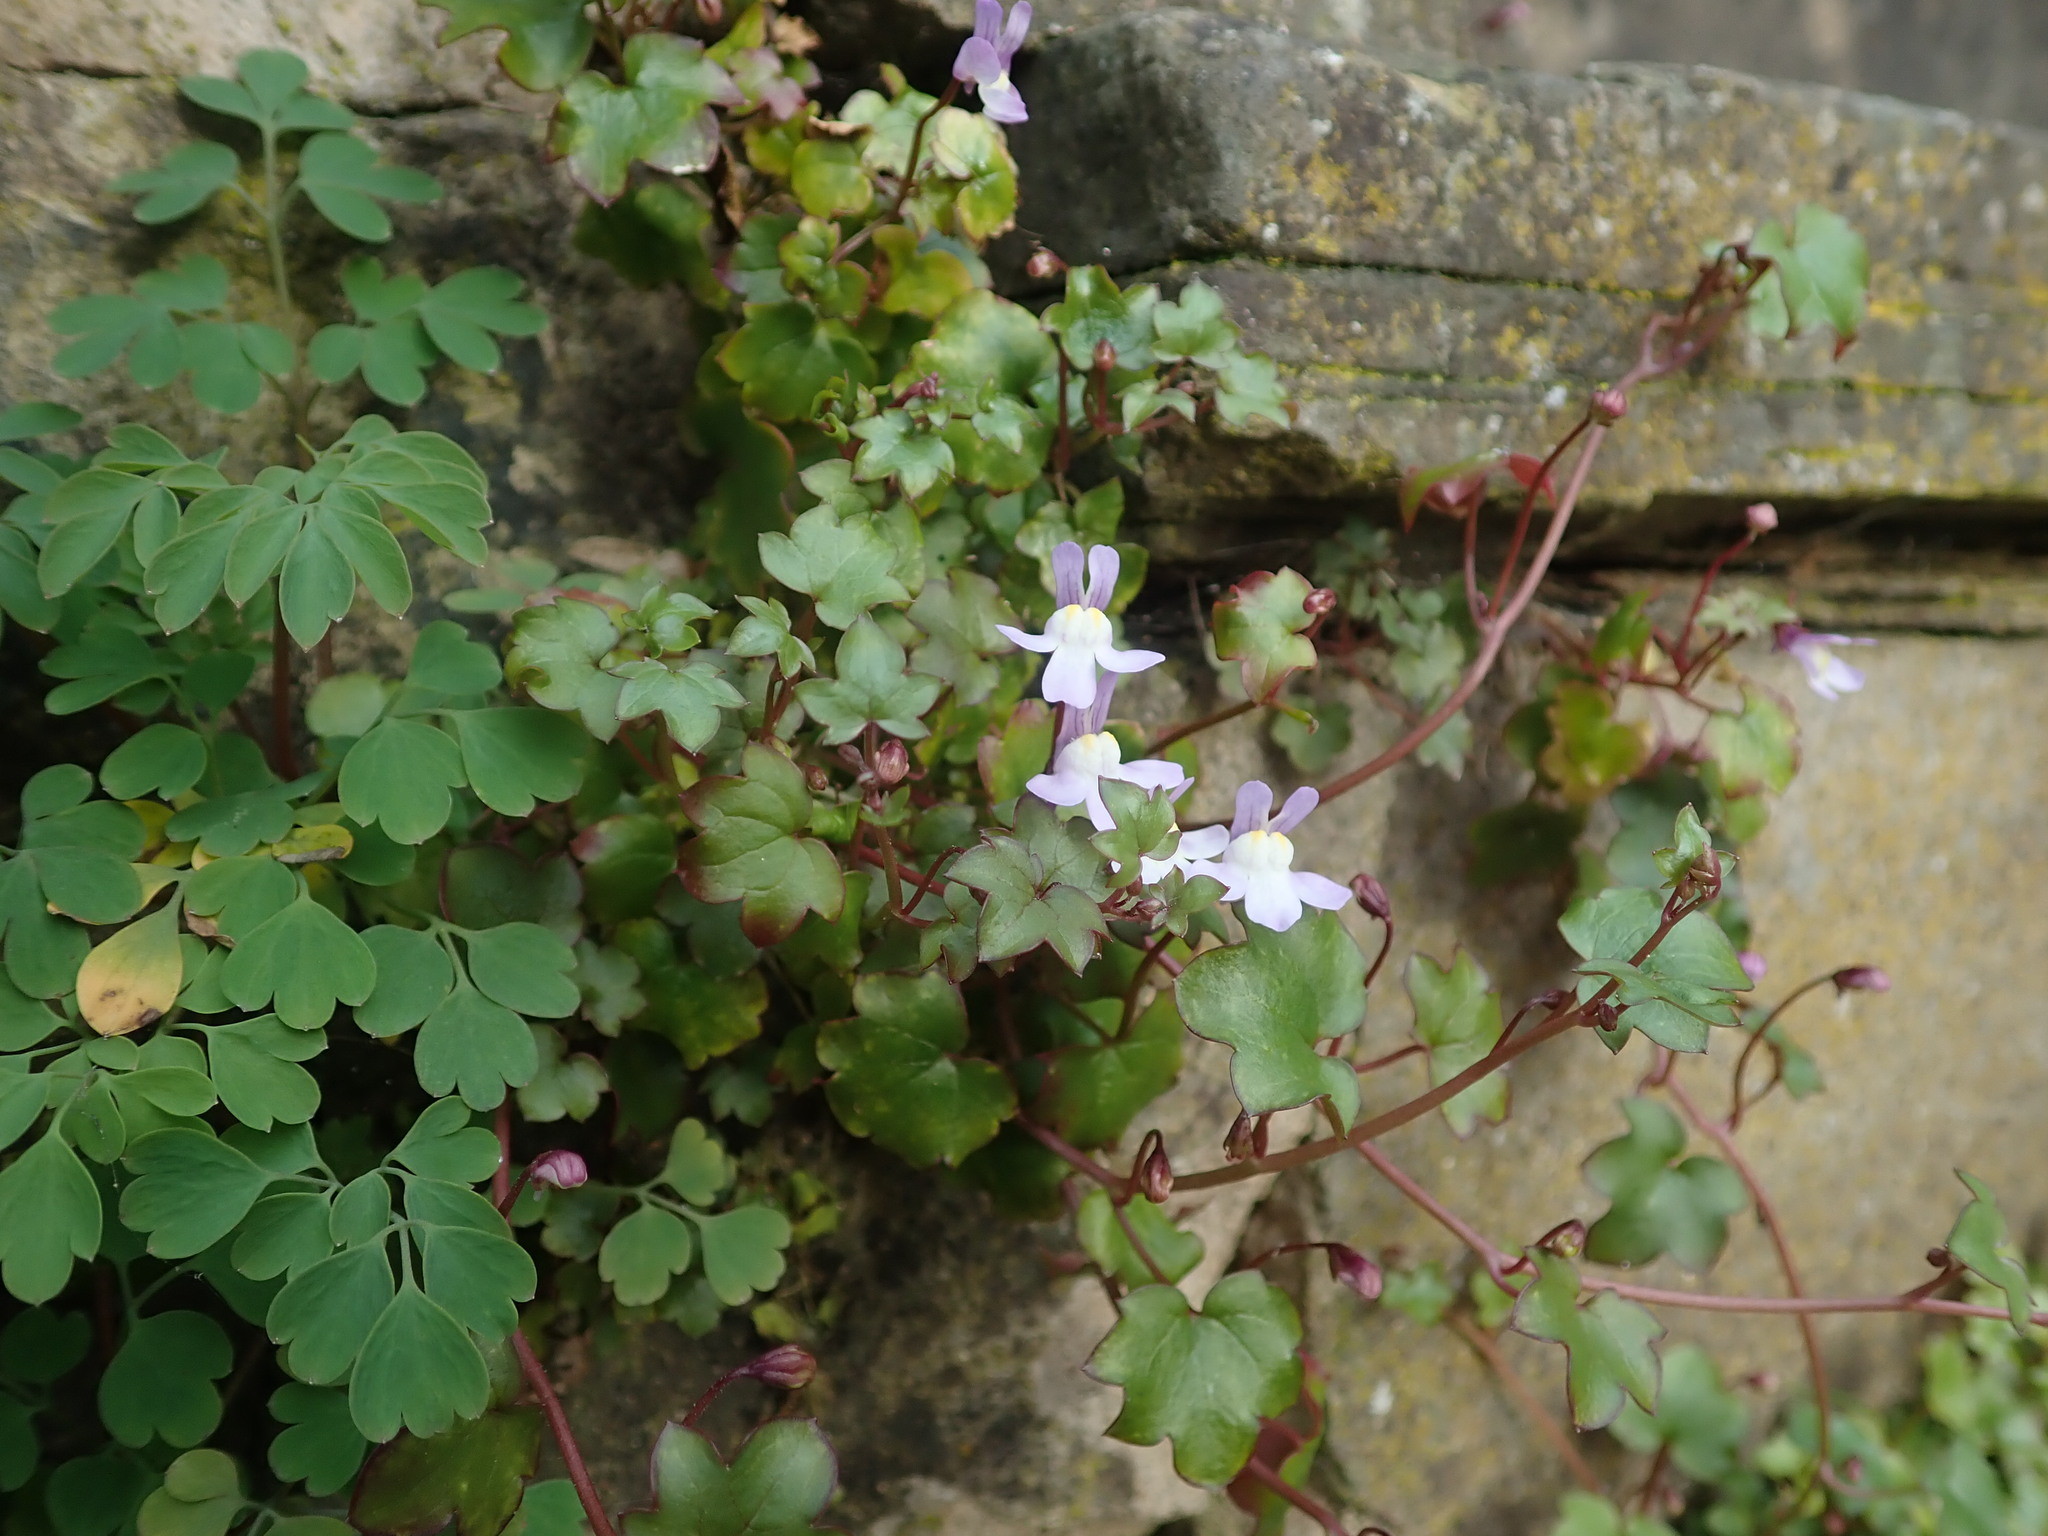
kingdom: Plantae
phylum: Tracheophyta
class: Magnoliopsida
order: Lamiales
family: Plantaginaceae
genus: Cymbalaria
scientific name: Cymbalaria muralis
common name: Ivy-leaved toadflax
